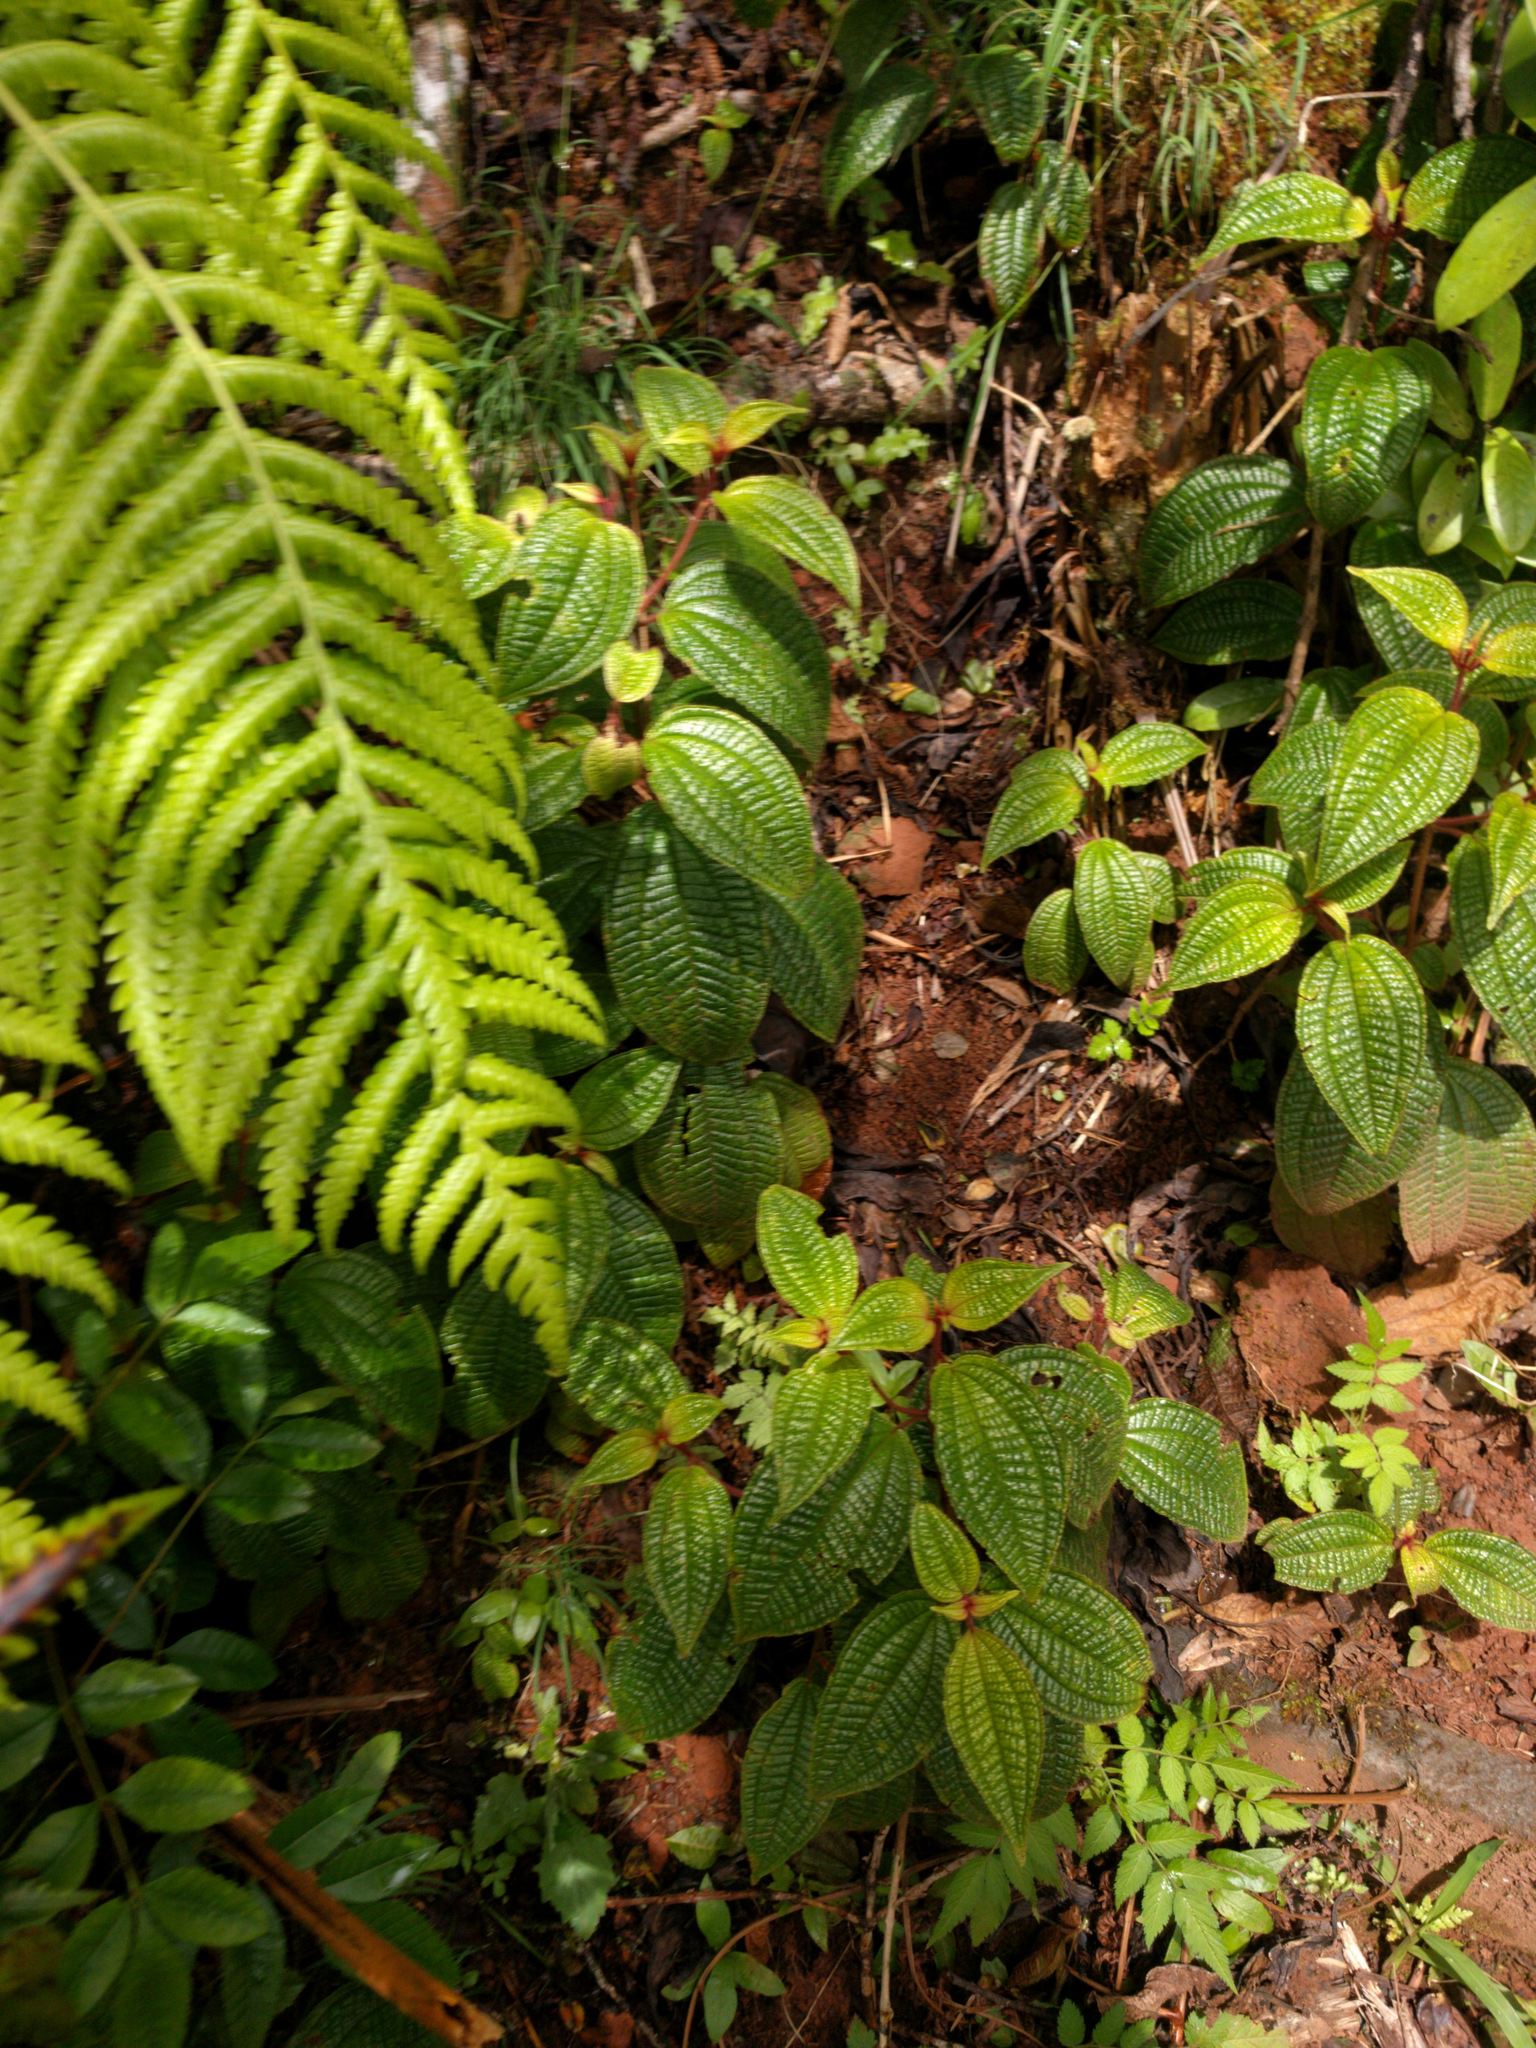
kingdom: Plantae
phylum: Tracheophyta
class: Magnoliopsida
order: Myrtales
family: Melastomataceae
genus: Miconia
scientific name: Miconia crenata
